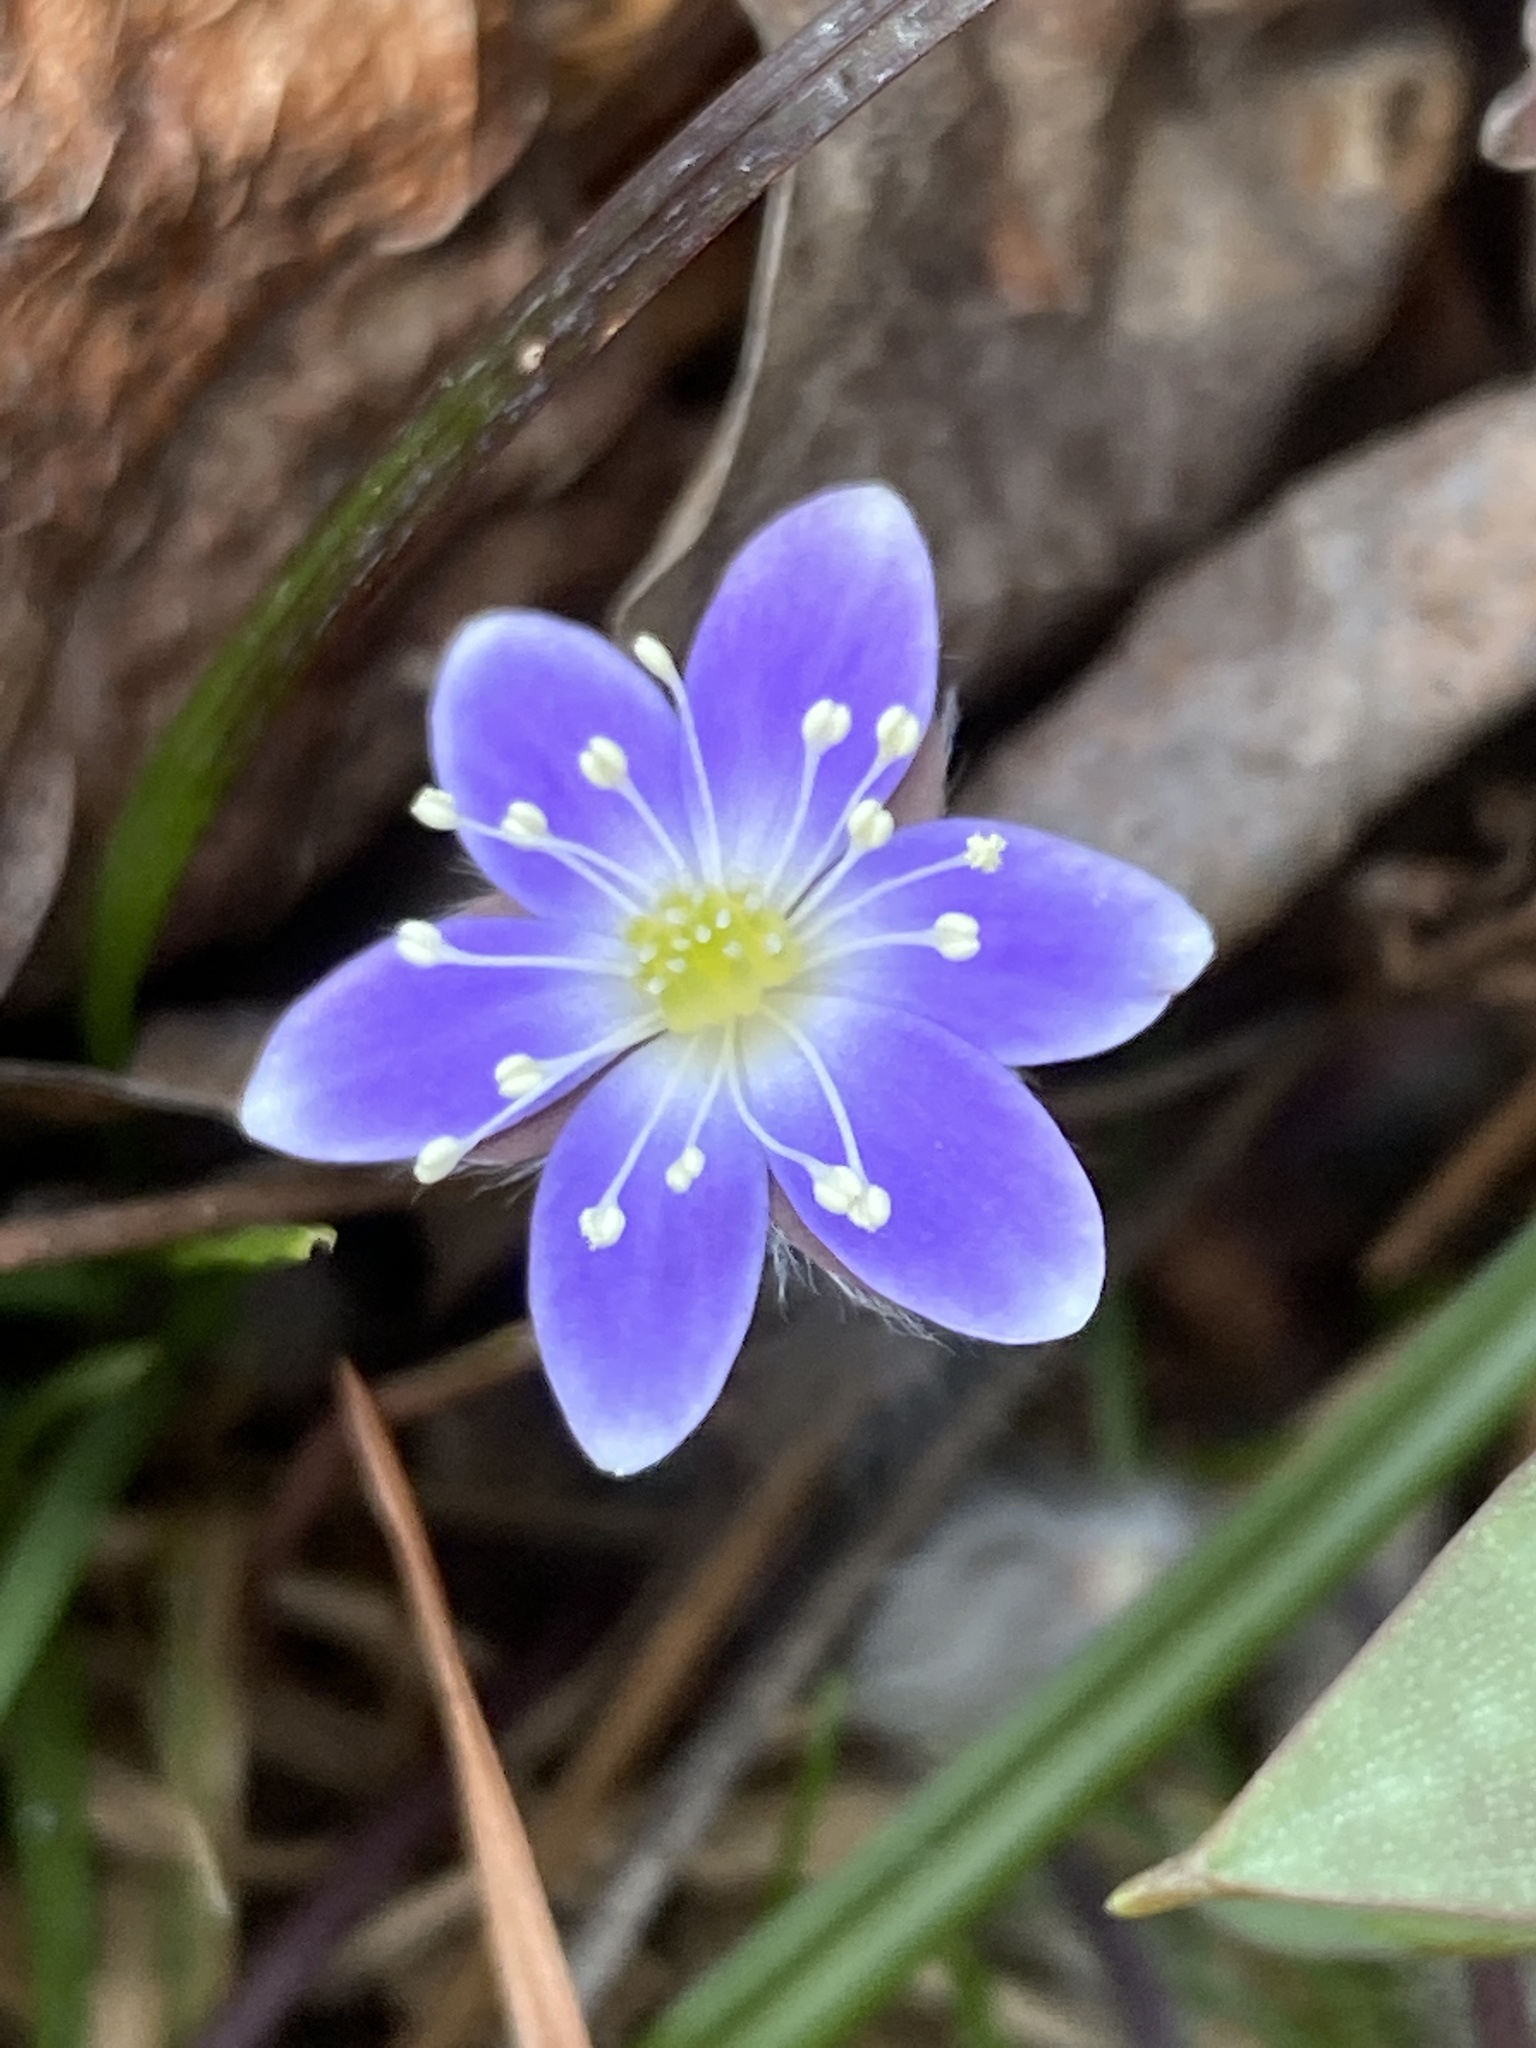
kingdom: Plantae
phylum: Tracheophyta
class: Magnoliopsida
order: Ranunculales
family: Ranunculaceae
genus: Hepatica
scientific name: Hepatica americana
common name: American hepatica
